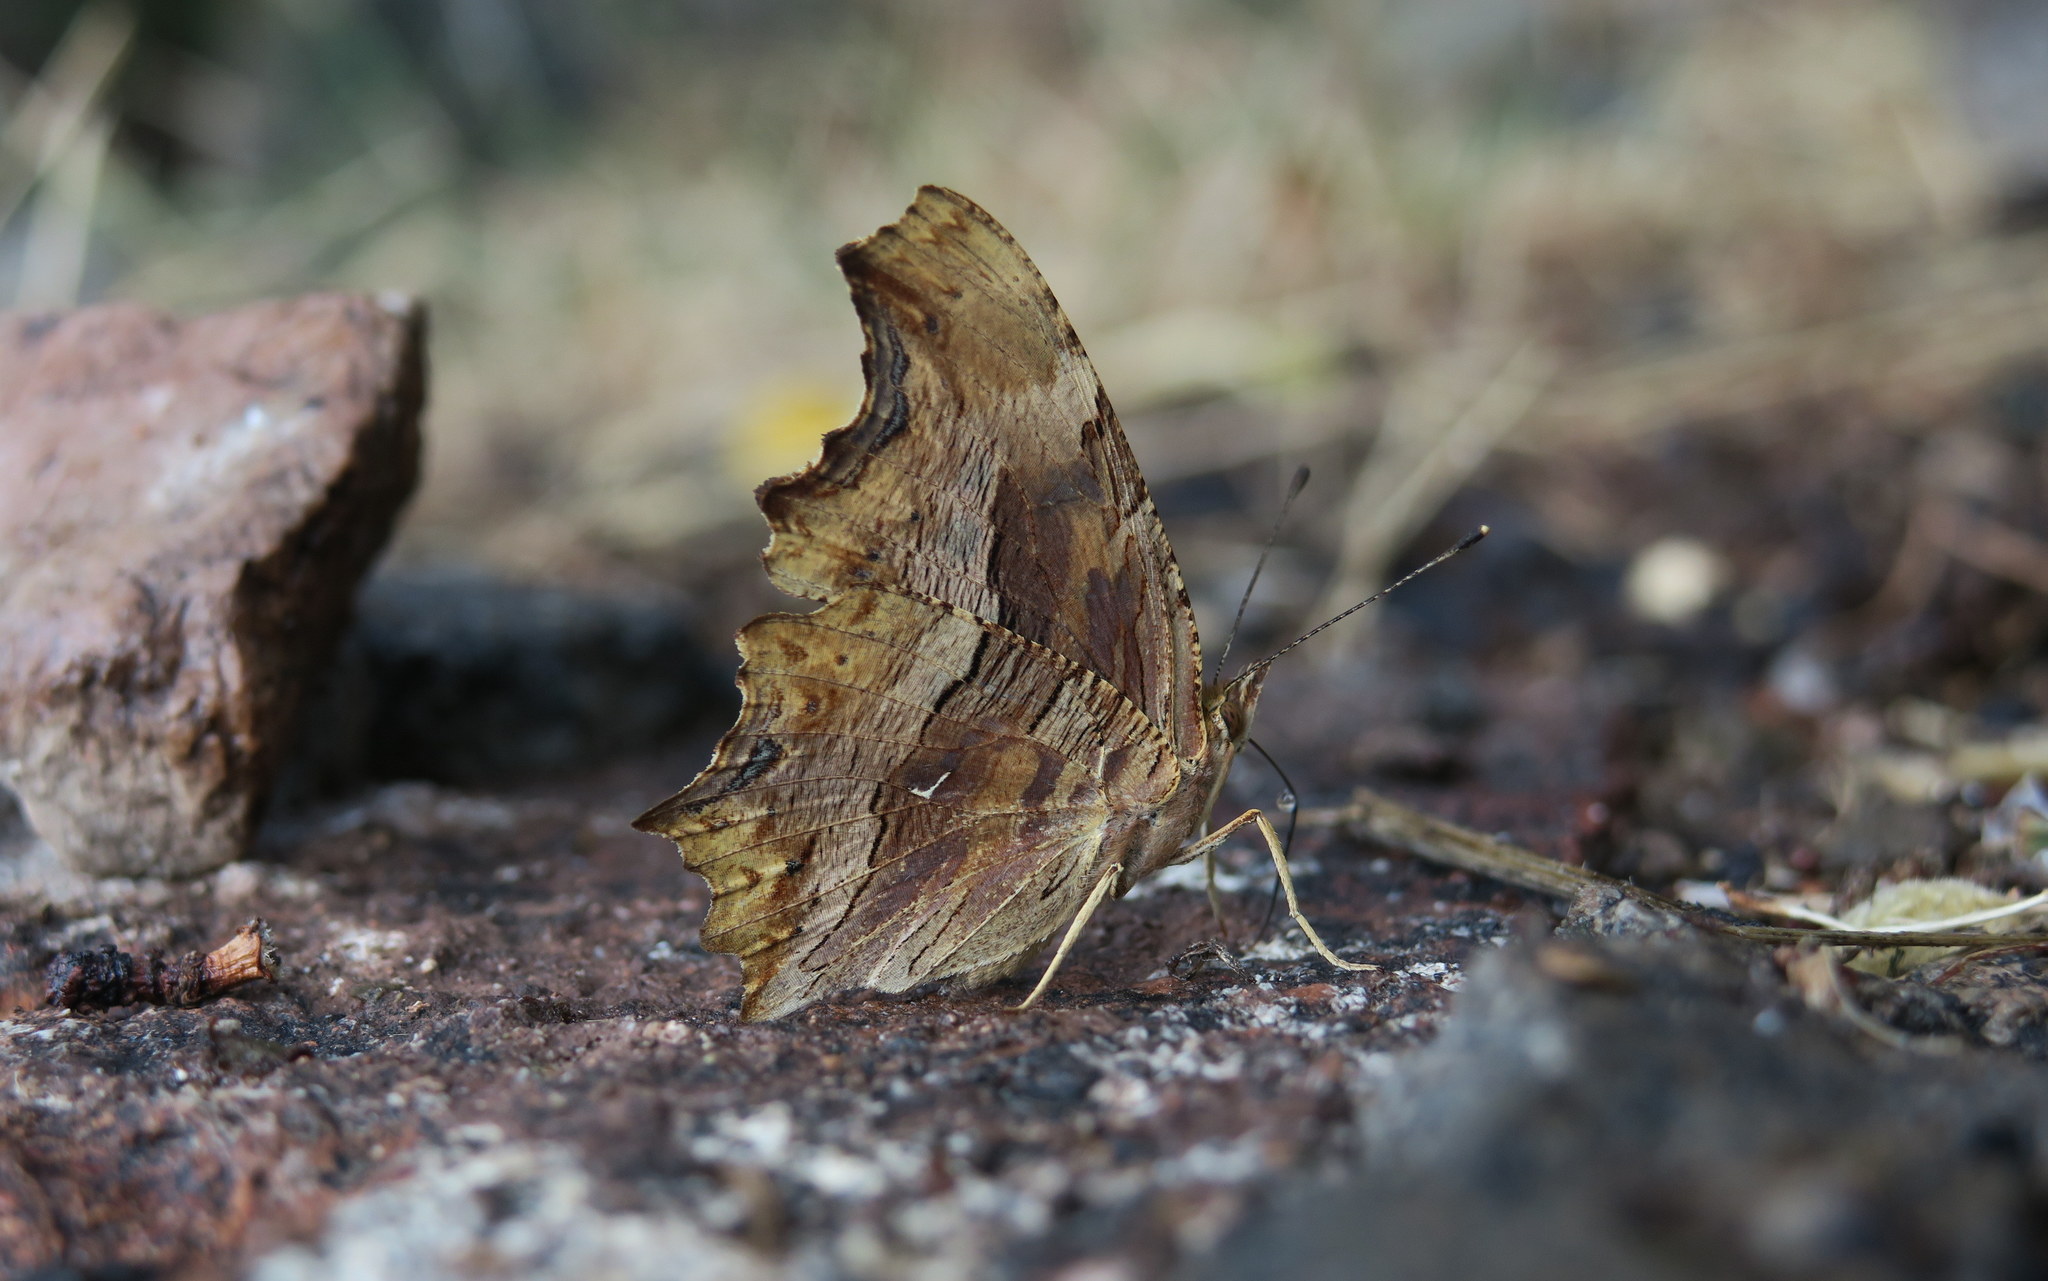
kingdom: Animalia
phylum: Arthropoda
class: Insecta
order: Lepidoptera
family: Nymphalidae
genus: Polygonia
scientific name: Polygonia egea
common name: Southern comma
